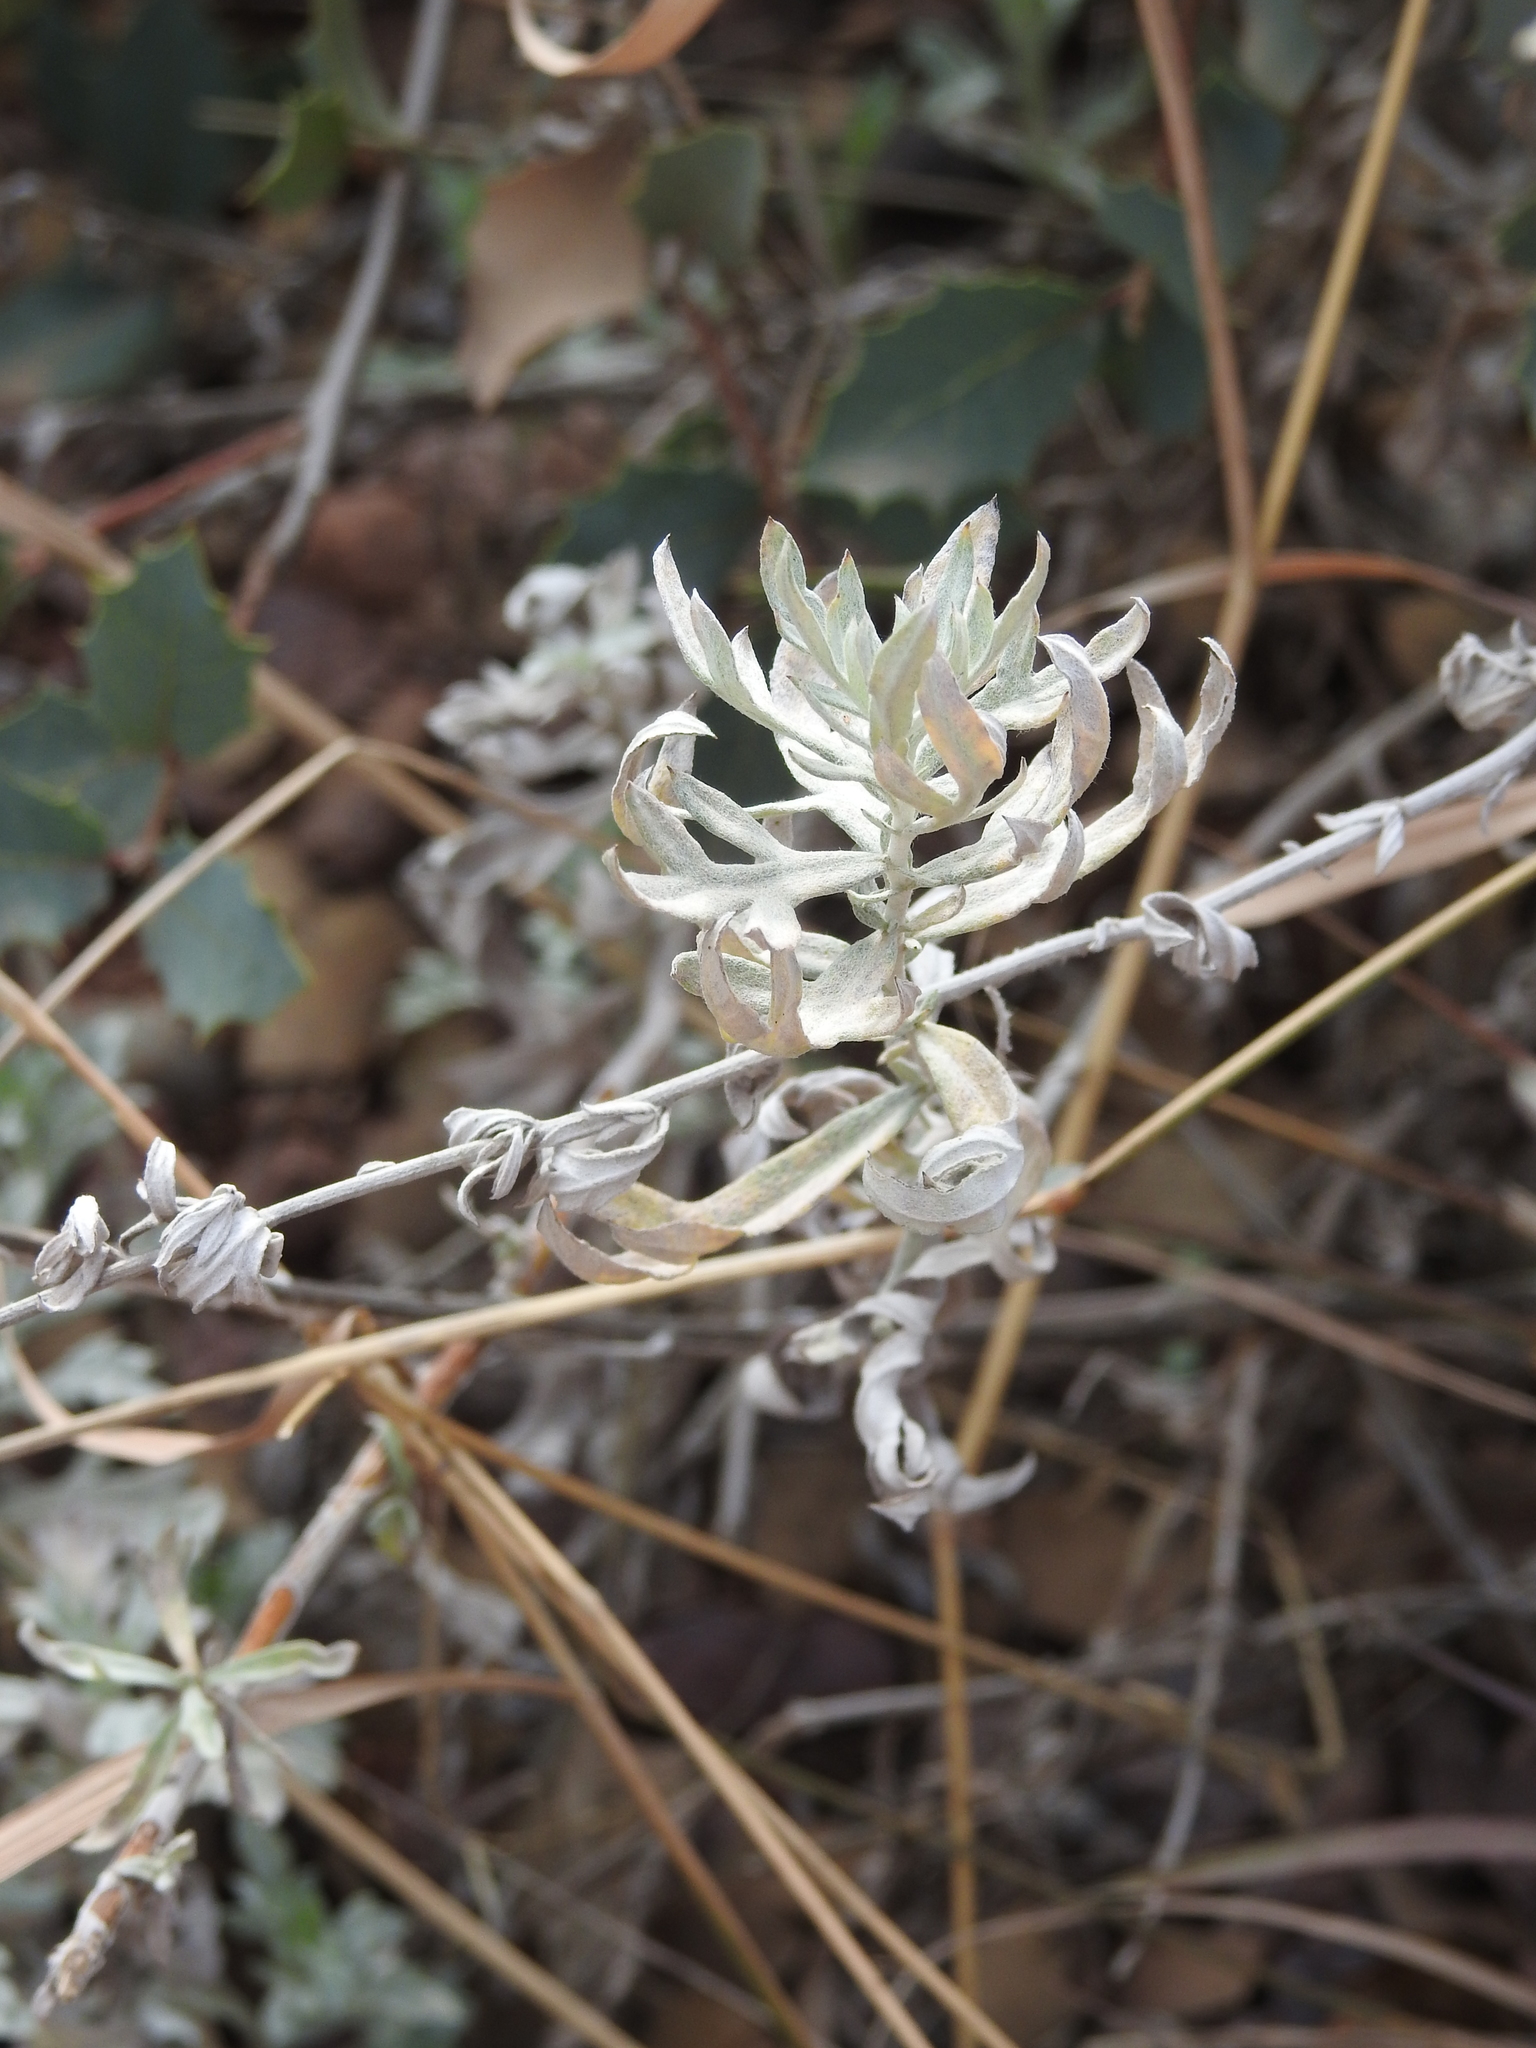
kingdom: Plantae
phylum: Tracheophyta
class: Magnoliopsida
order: Asterales
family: Asteraceae
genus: Artemisia
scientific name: Artemisia ludoviciana
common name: Western mugwort
